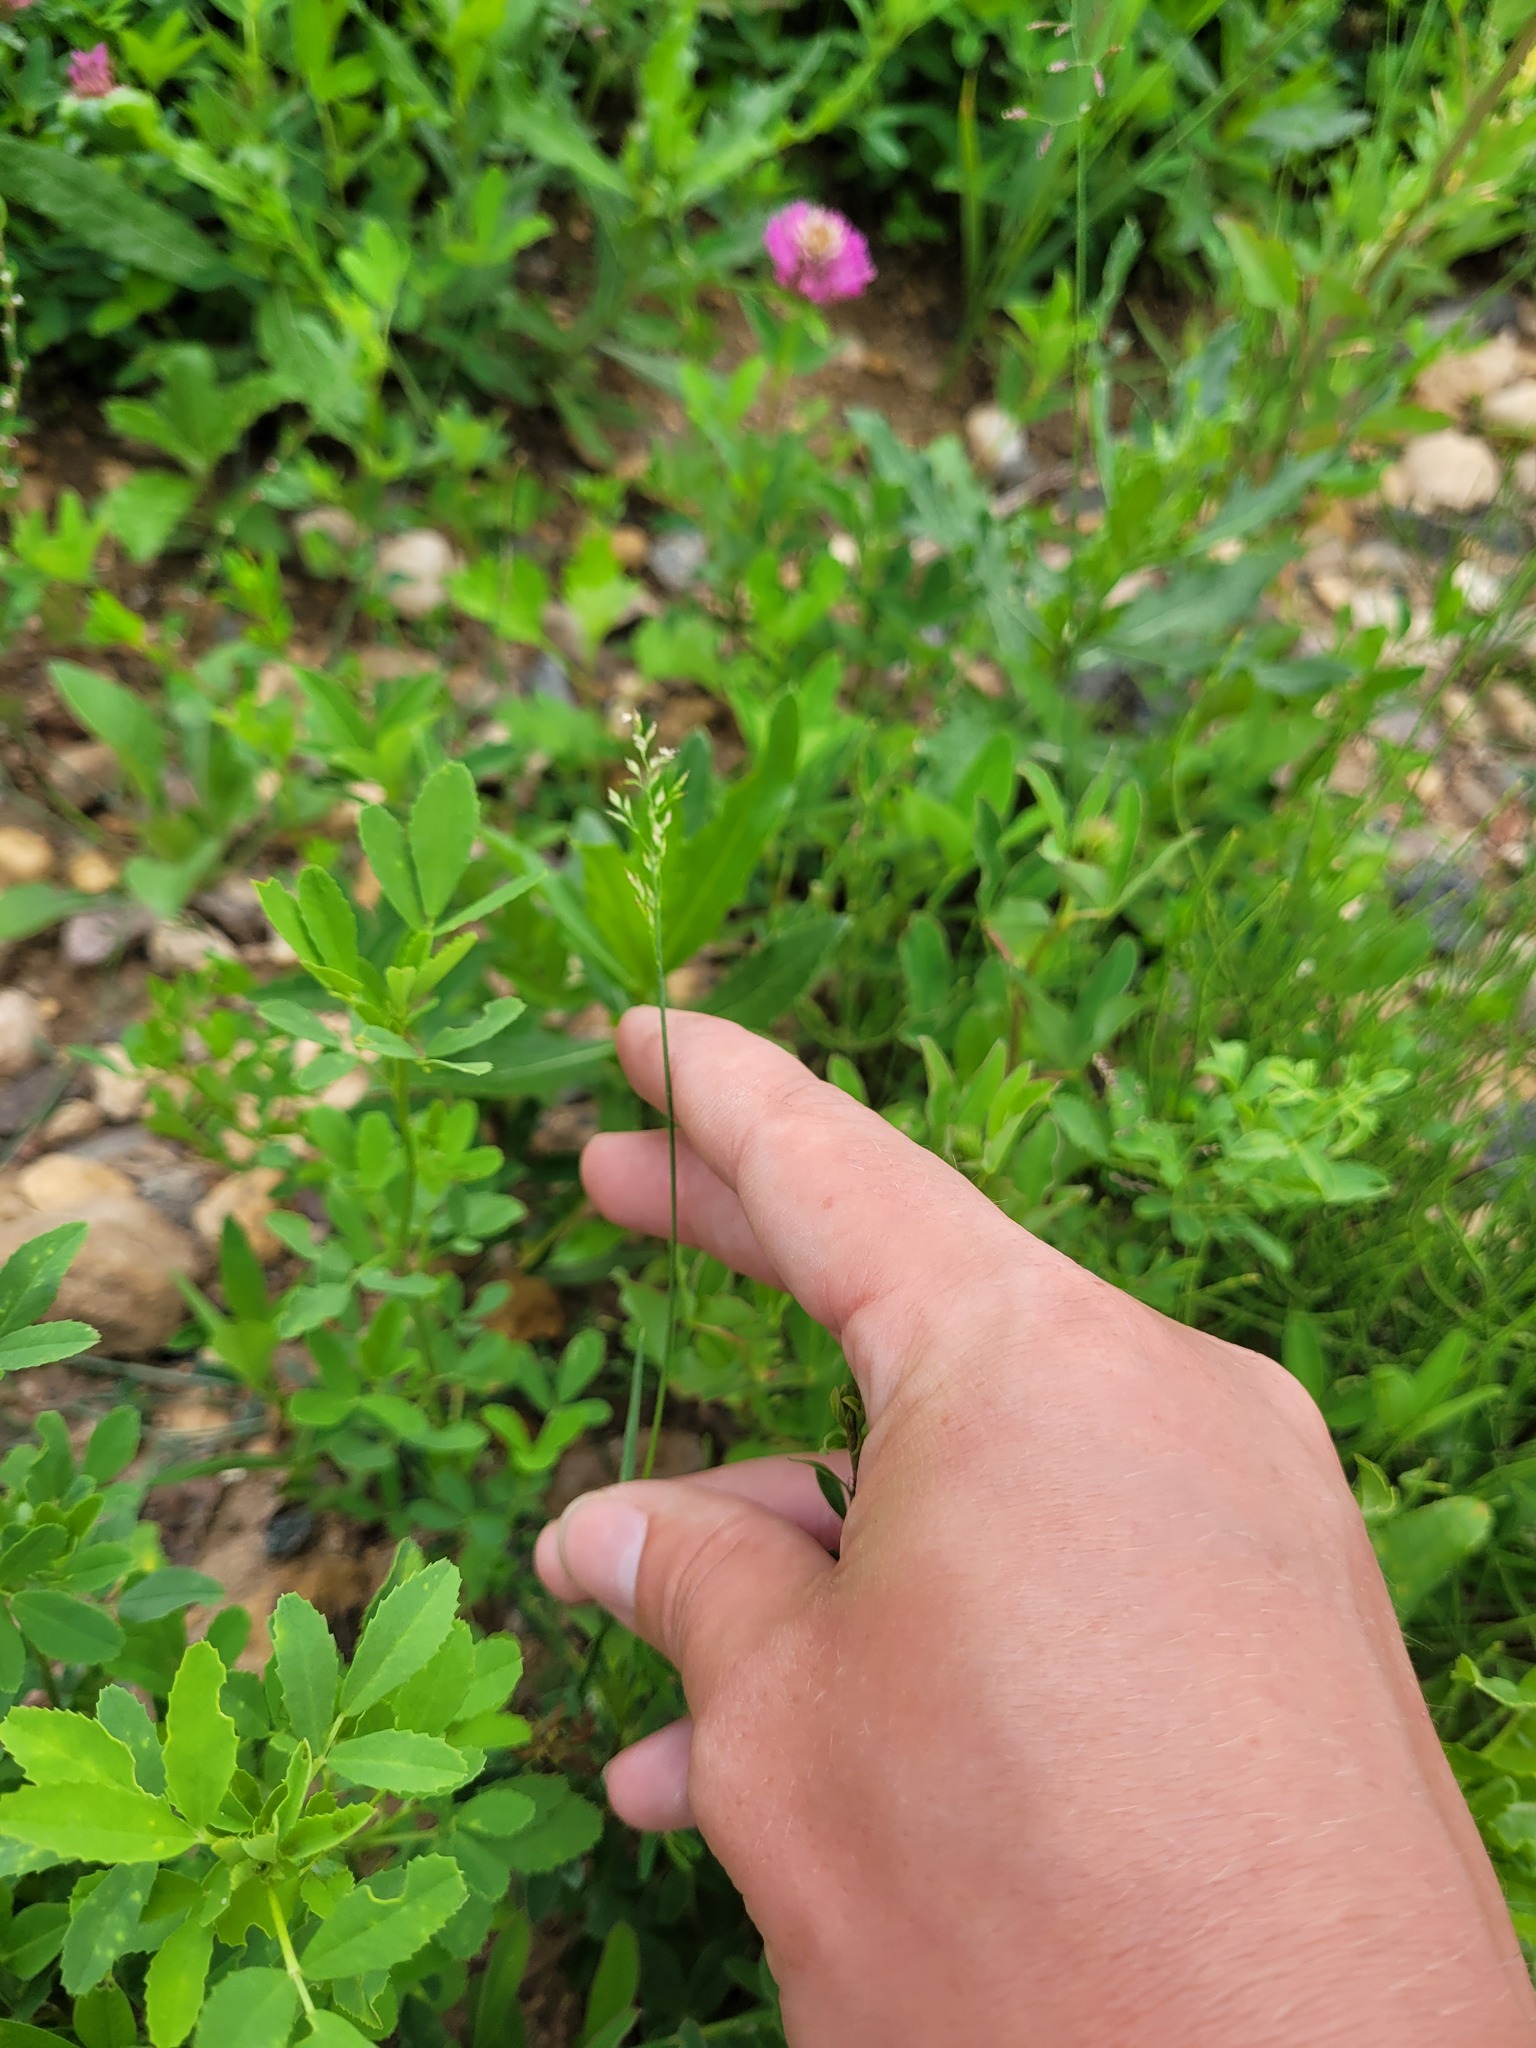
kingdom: Plantae
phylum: Tracheophyta
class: Liliopsida
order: Poales
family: Poaceae
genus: Poa
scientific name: Poa compressa
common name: Canada bluegrass
